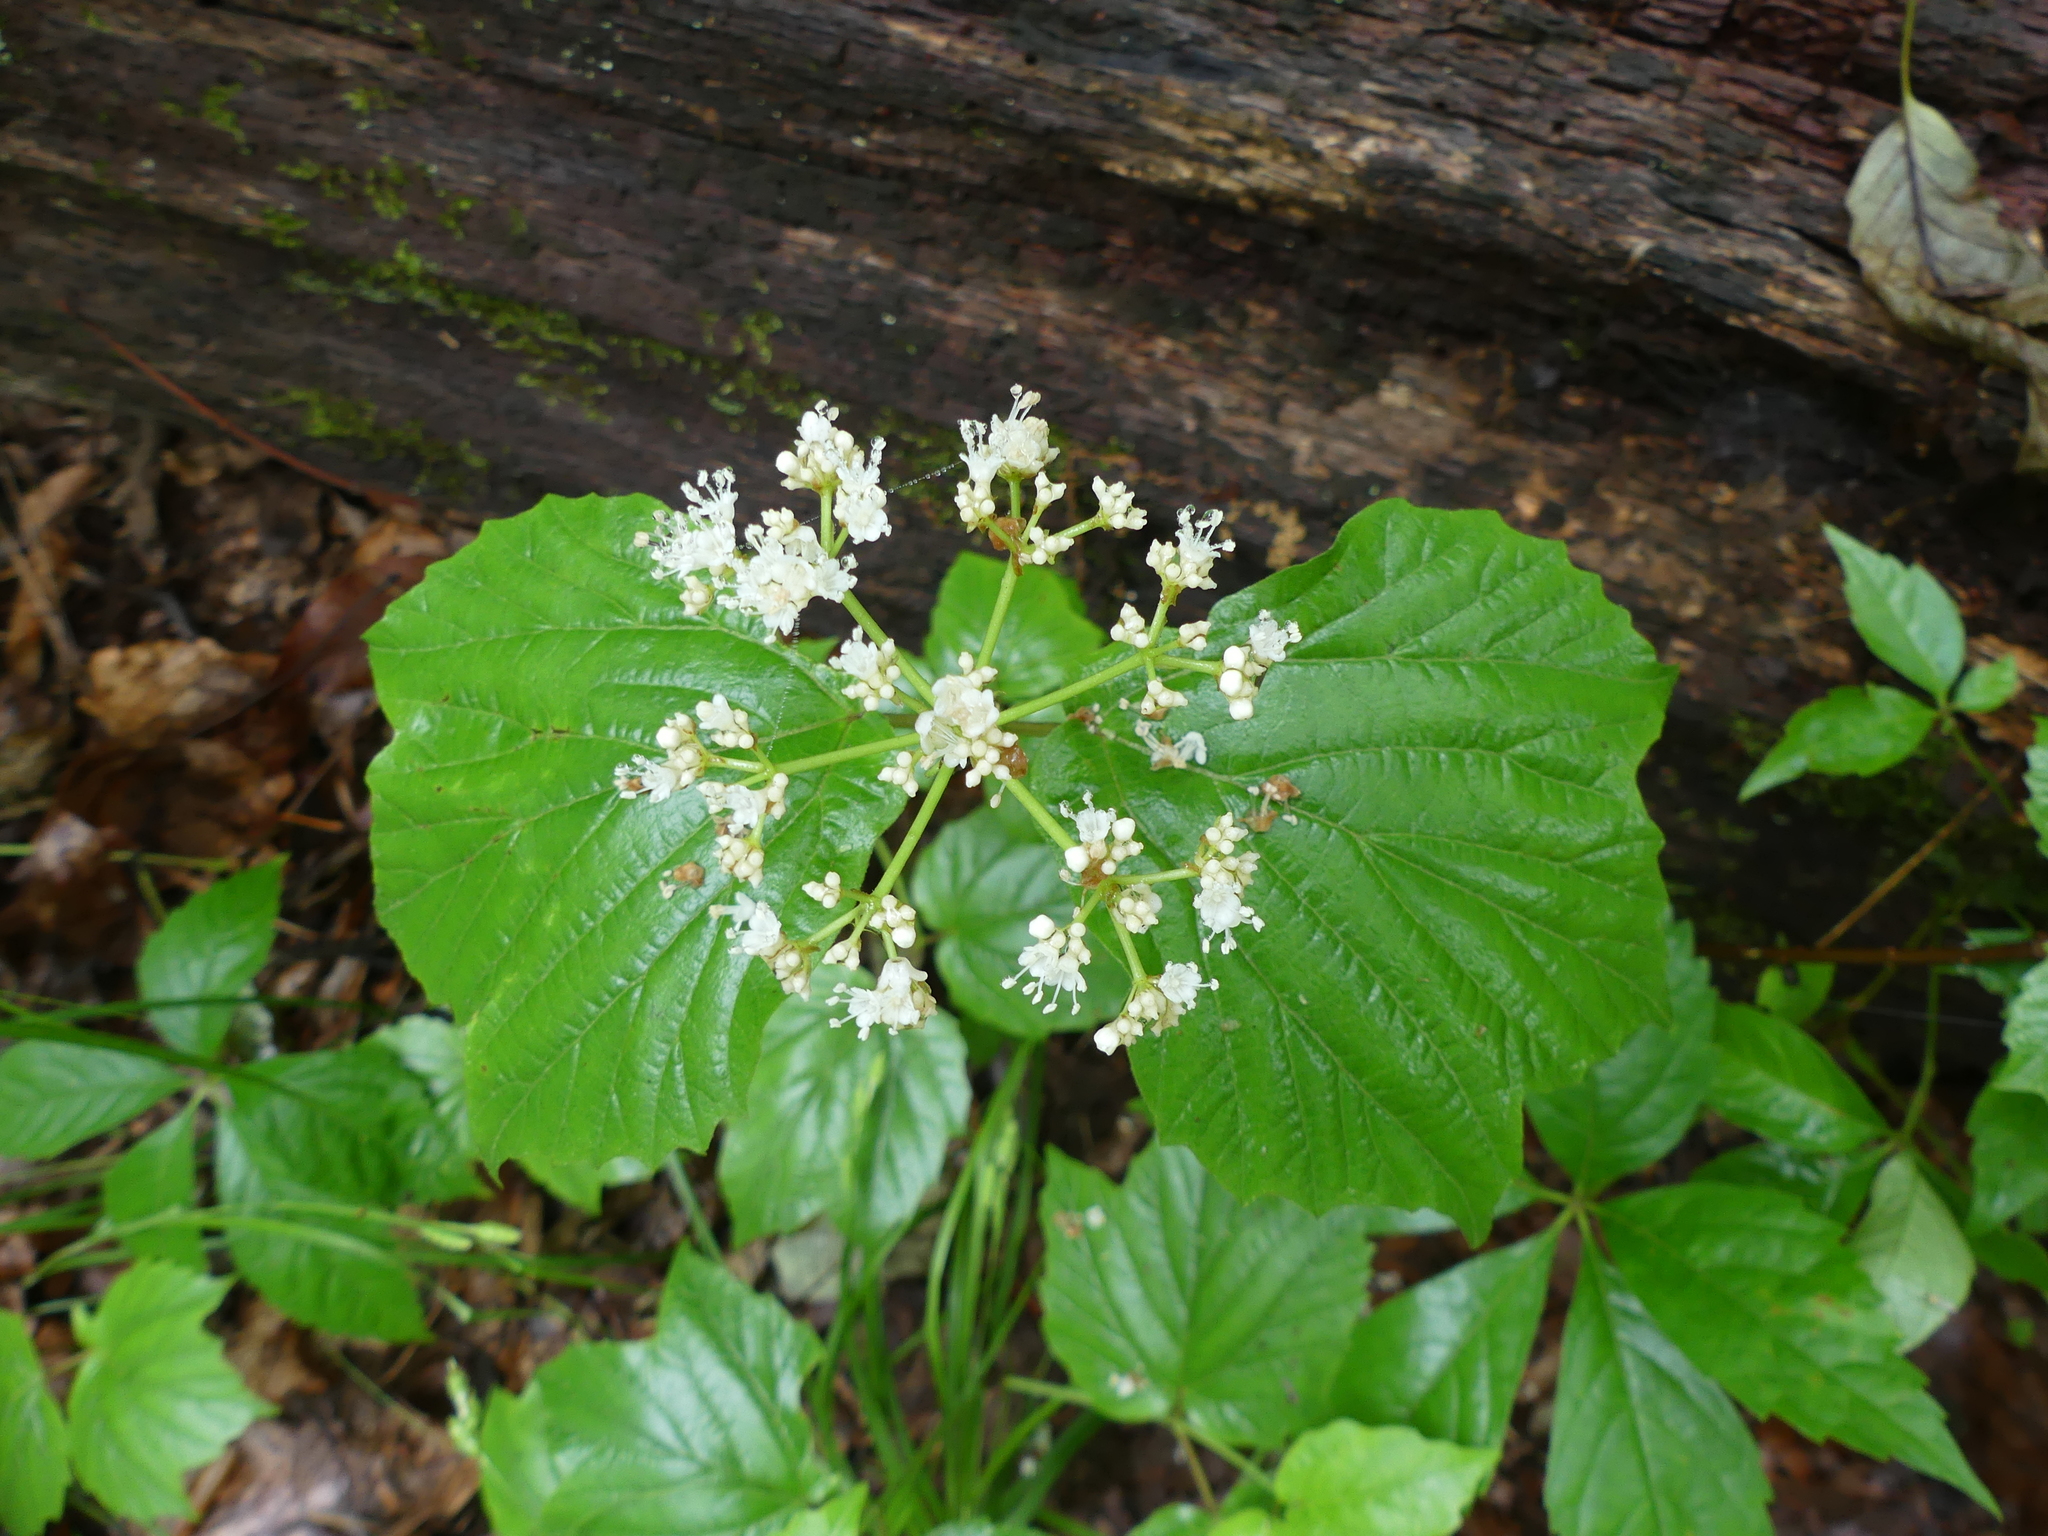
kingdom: Plantae
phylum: Tracheophyta
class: Magnoliopsida
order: Dipsacales
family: Viburnaceae
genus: Viburnum
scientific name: Viburnum acerifolium
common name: Dockmackie
